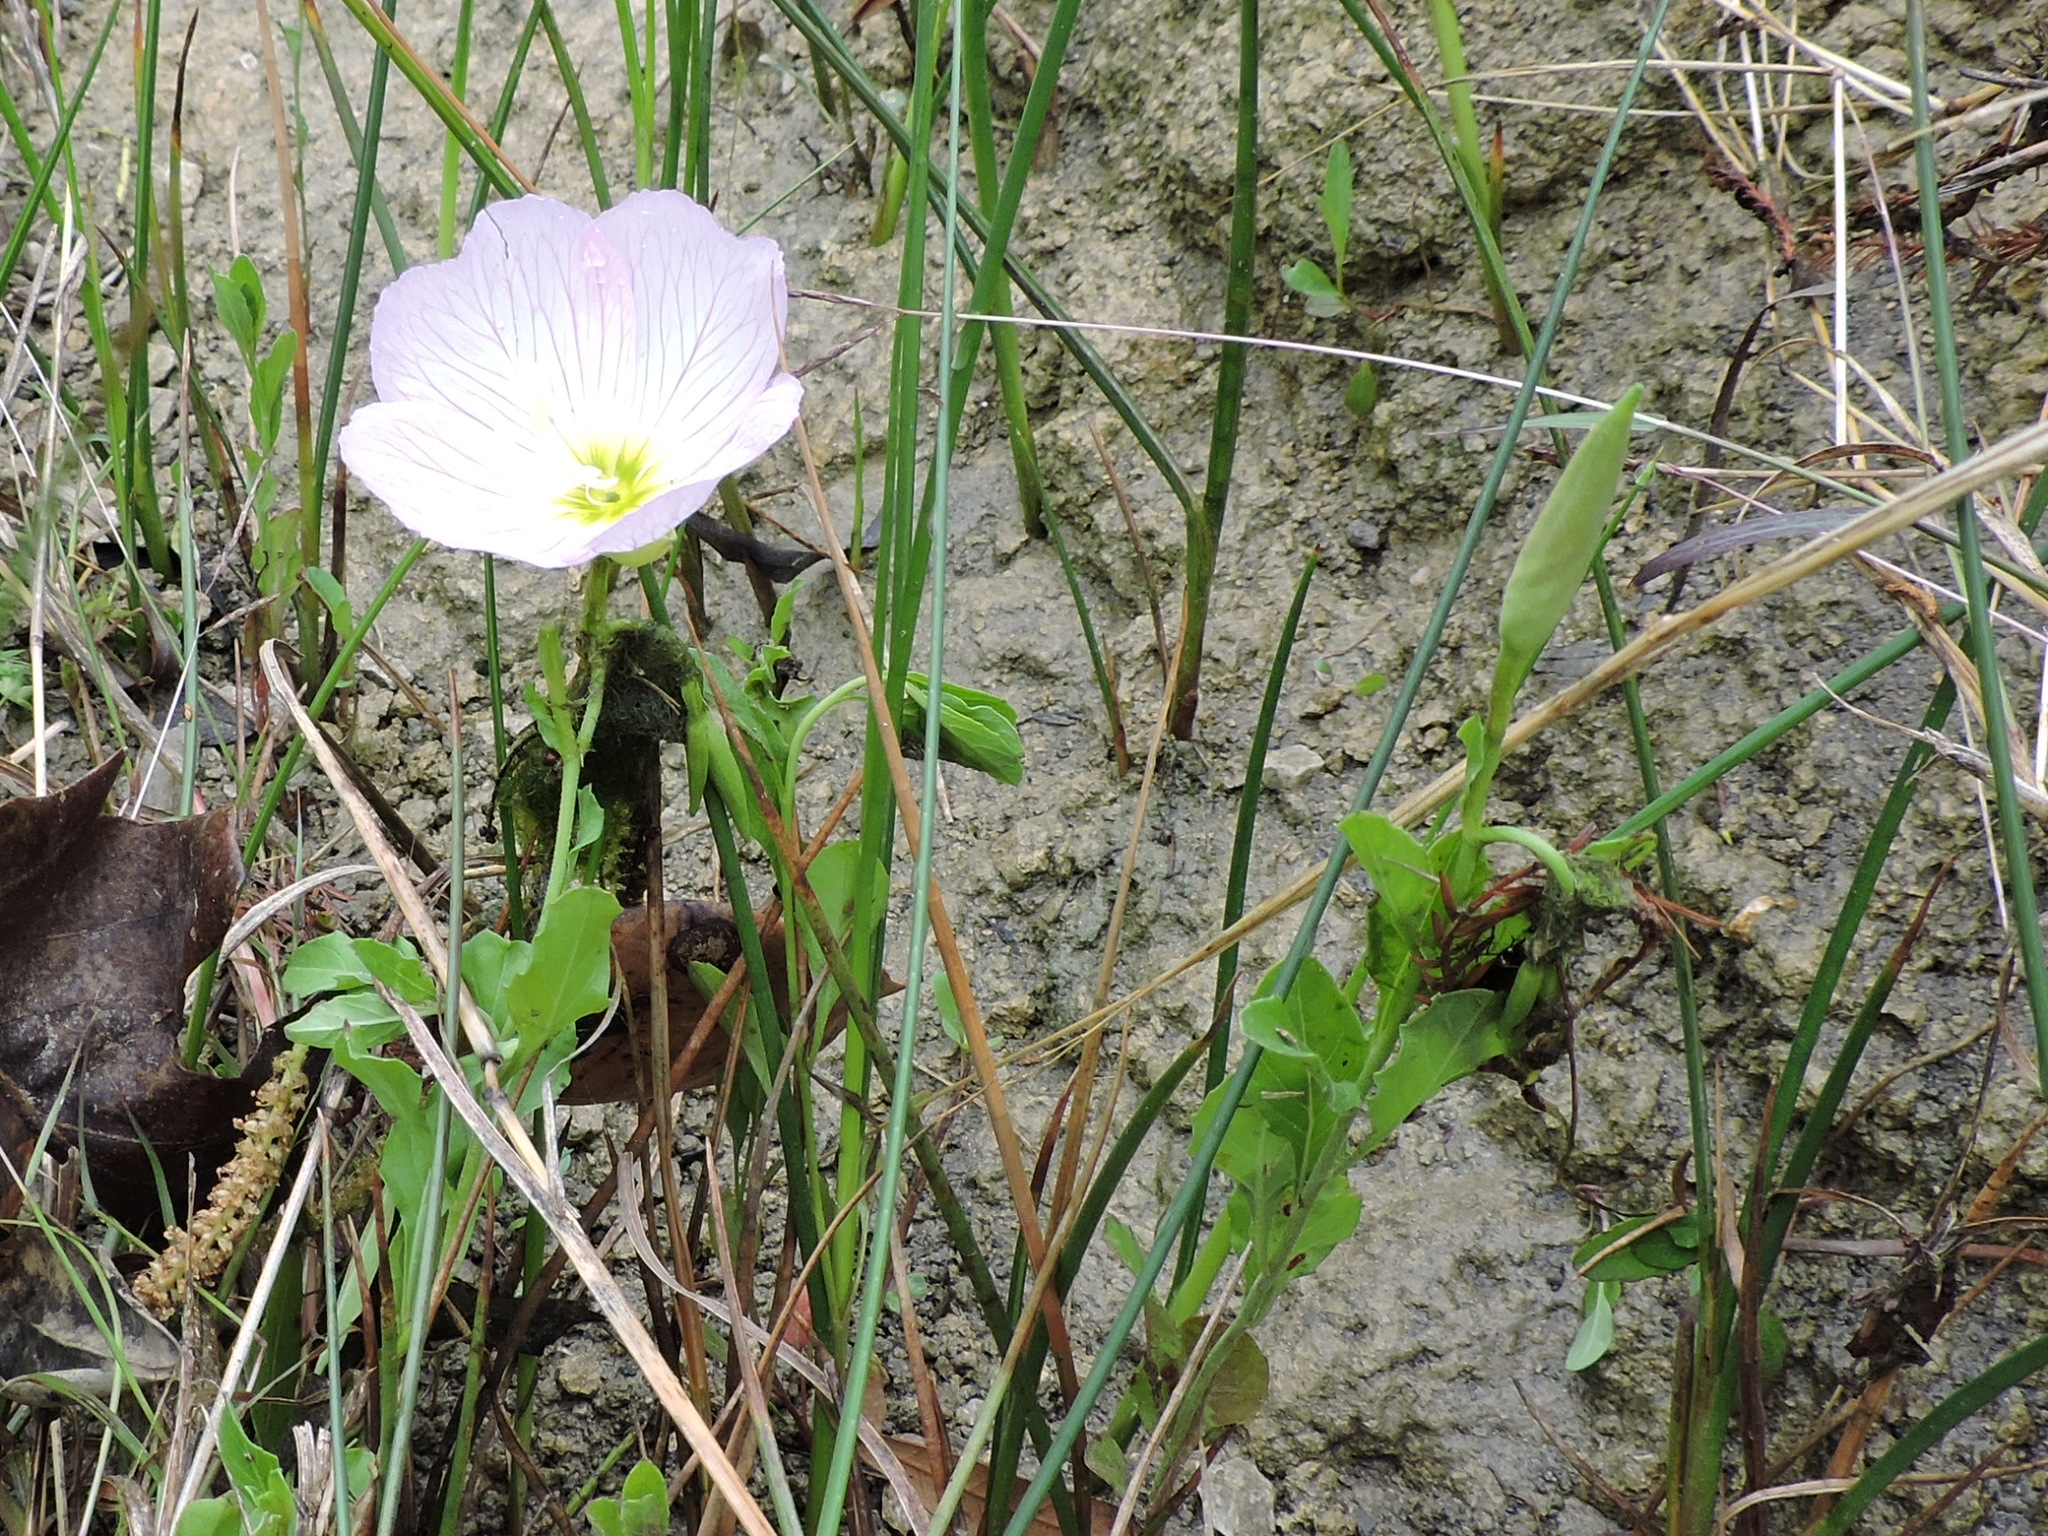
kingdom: Plantae
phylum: Tracheophyta
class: Magnoliopsida
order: Myrtales
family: Onagraceae
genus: Oenothera
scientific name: Oenothera speciosa
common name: White evening-primrose
